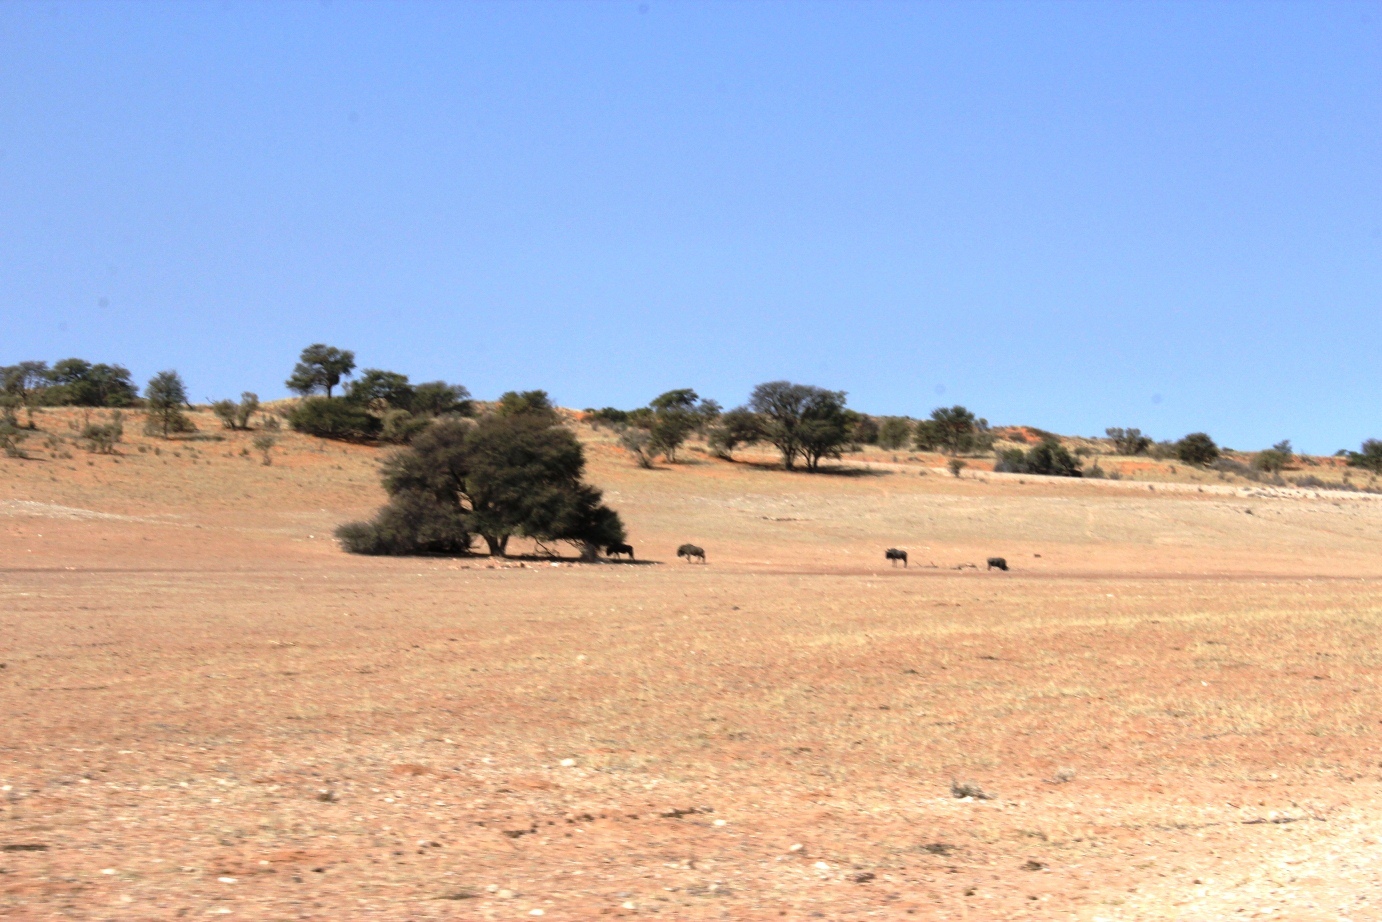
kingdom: Animalia
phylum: Chordata
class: Mammalia
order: Artiodactyla
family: Bovidae
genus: Connochaetes
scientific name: Connochaetes taurinus
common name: Blue wildebeest
